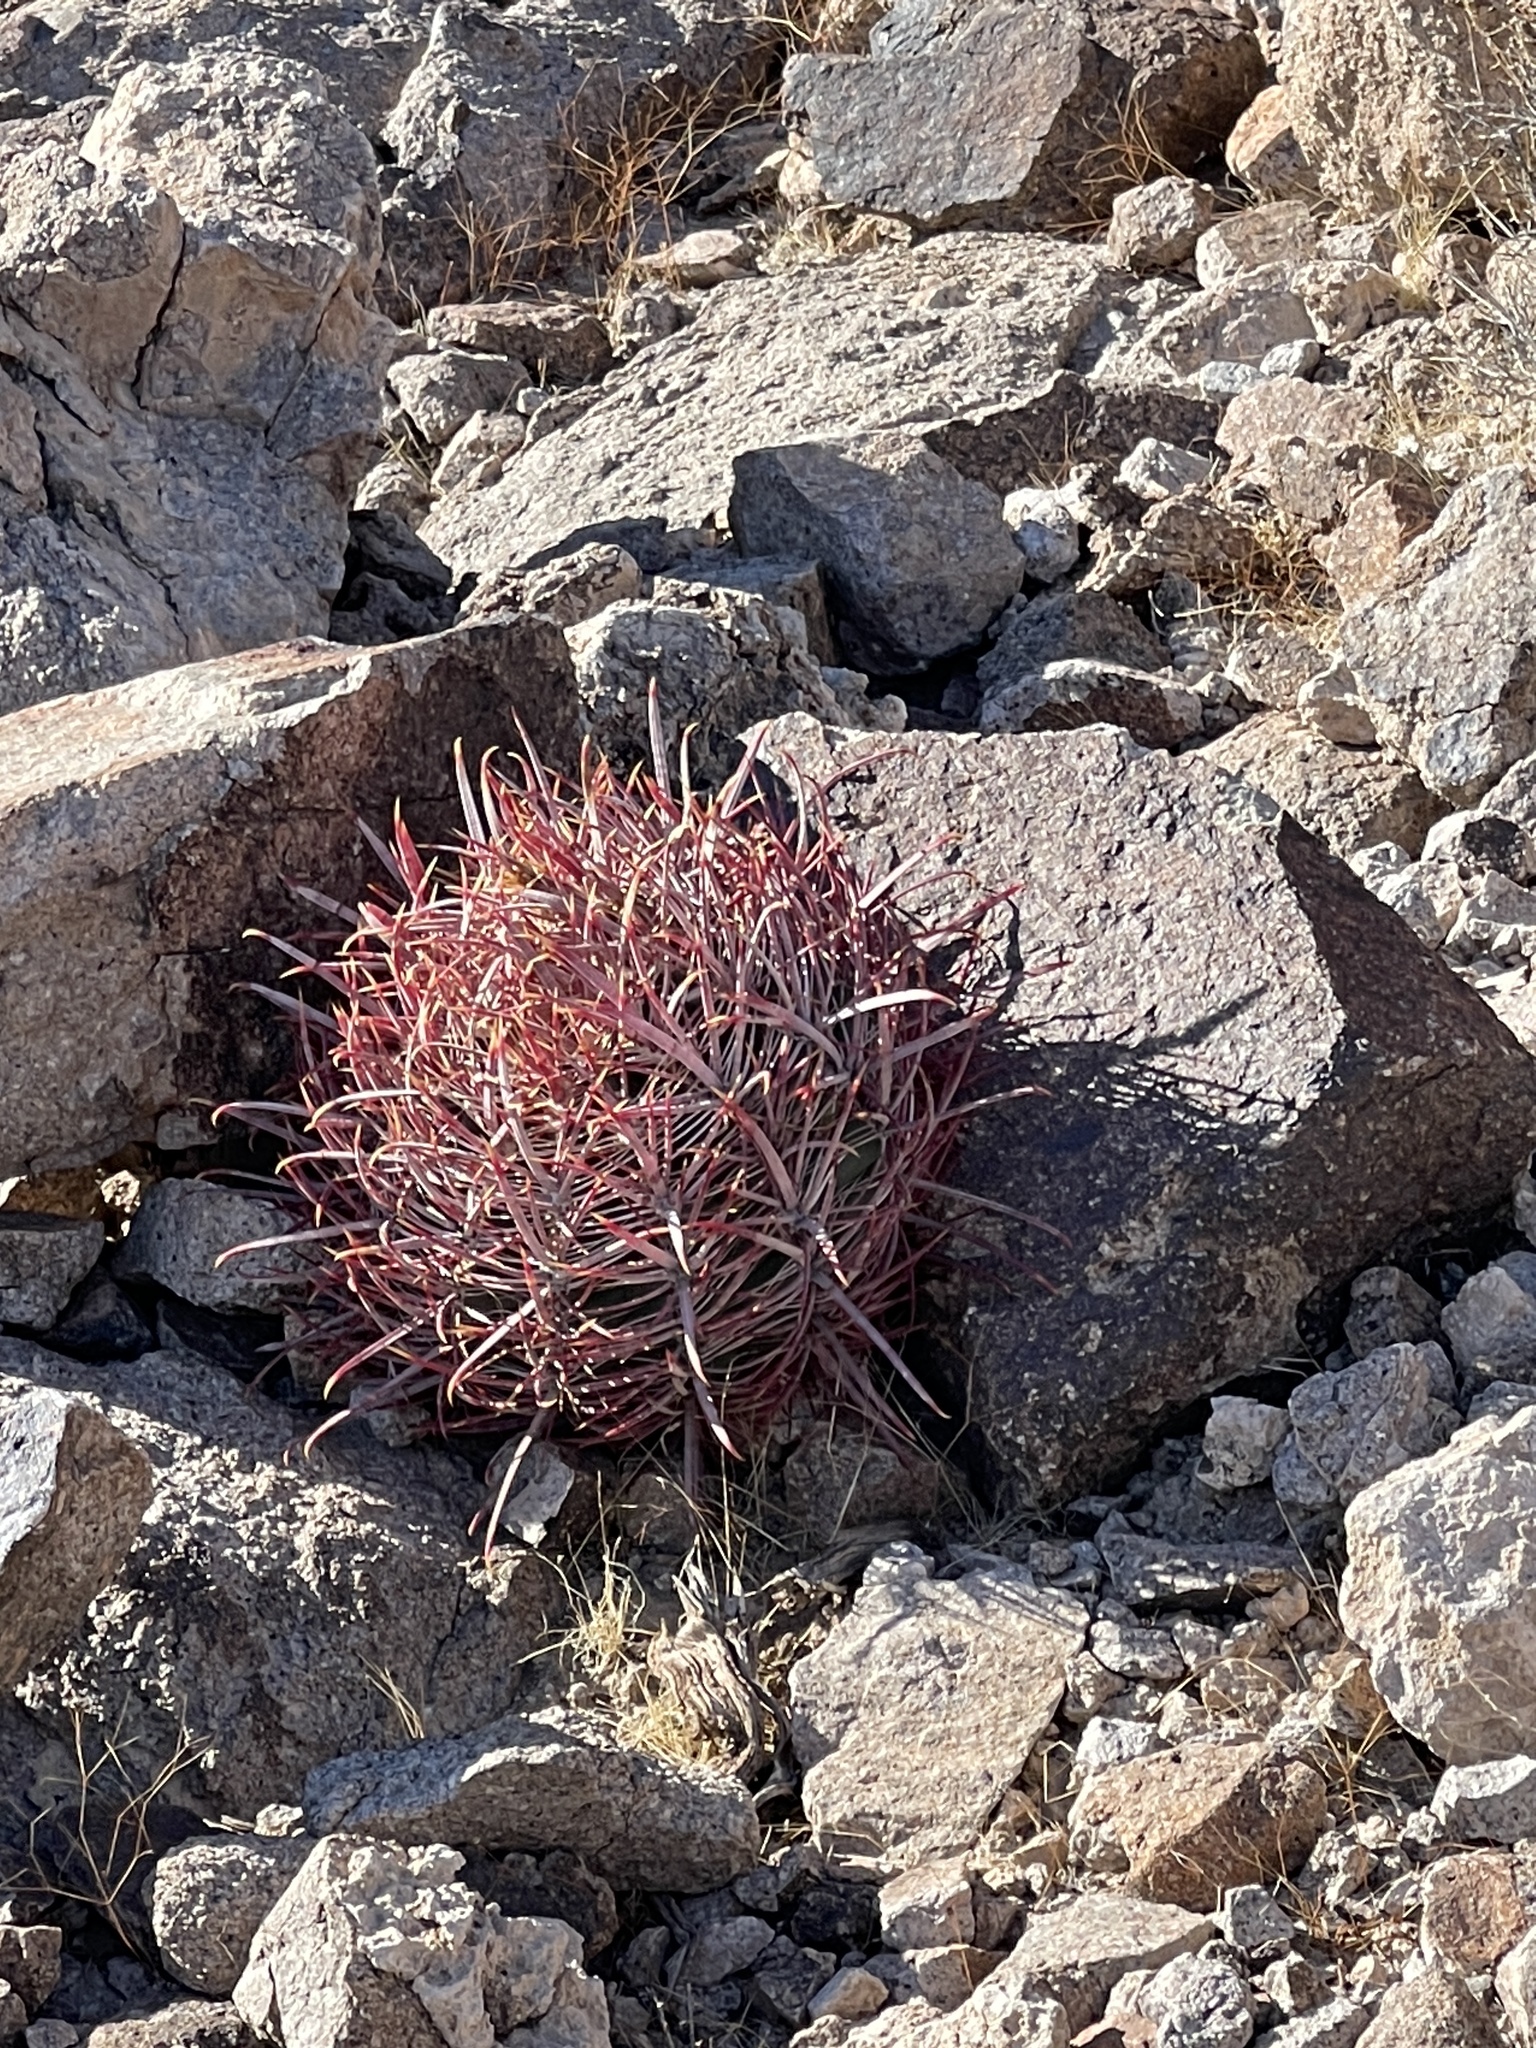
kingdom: Plantae
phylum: Tracheophyta
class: Magnoliopsida
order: Caryophyllales
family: Cactaceae
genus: Ferocactus
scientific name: Ferocactus cylindraceus
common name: California barrel cactus
